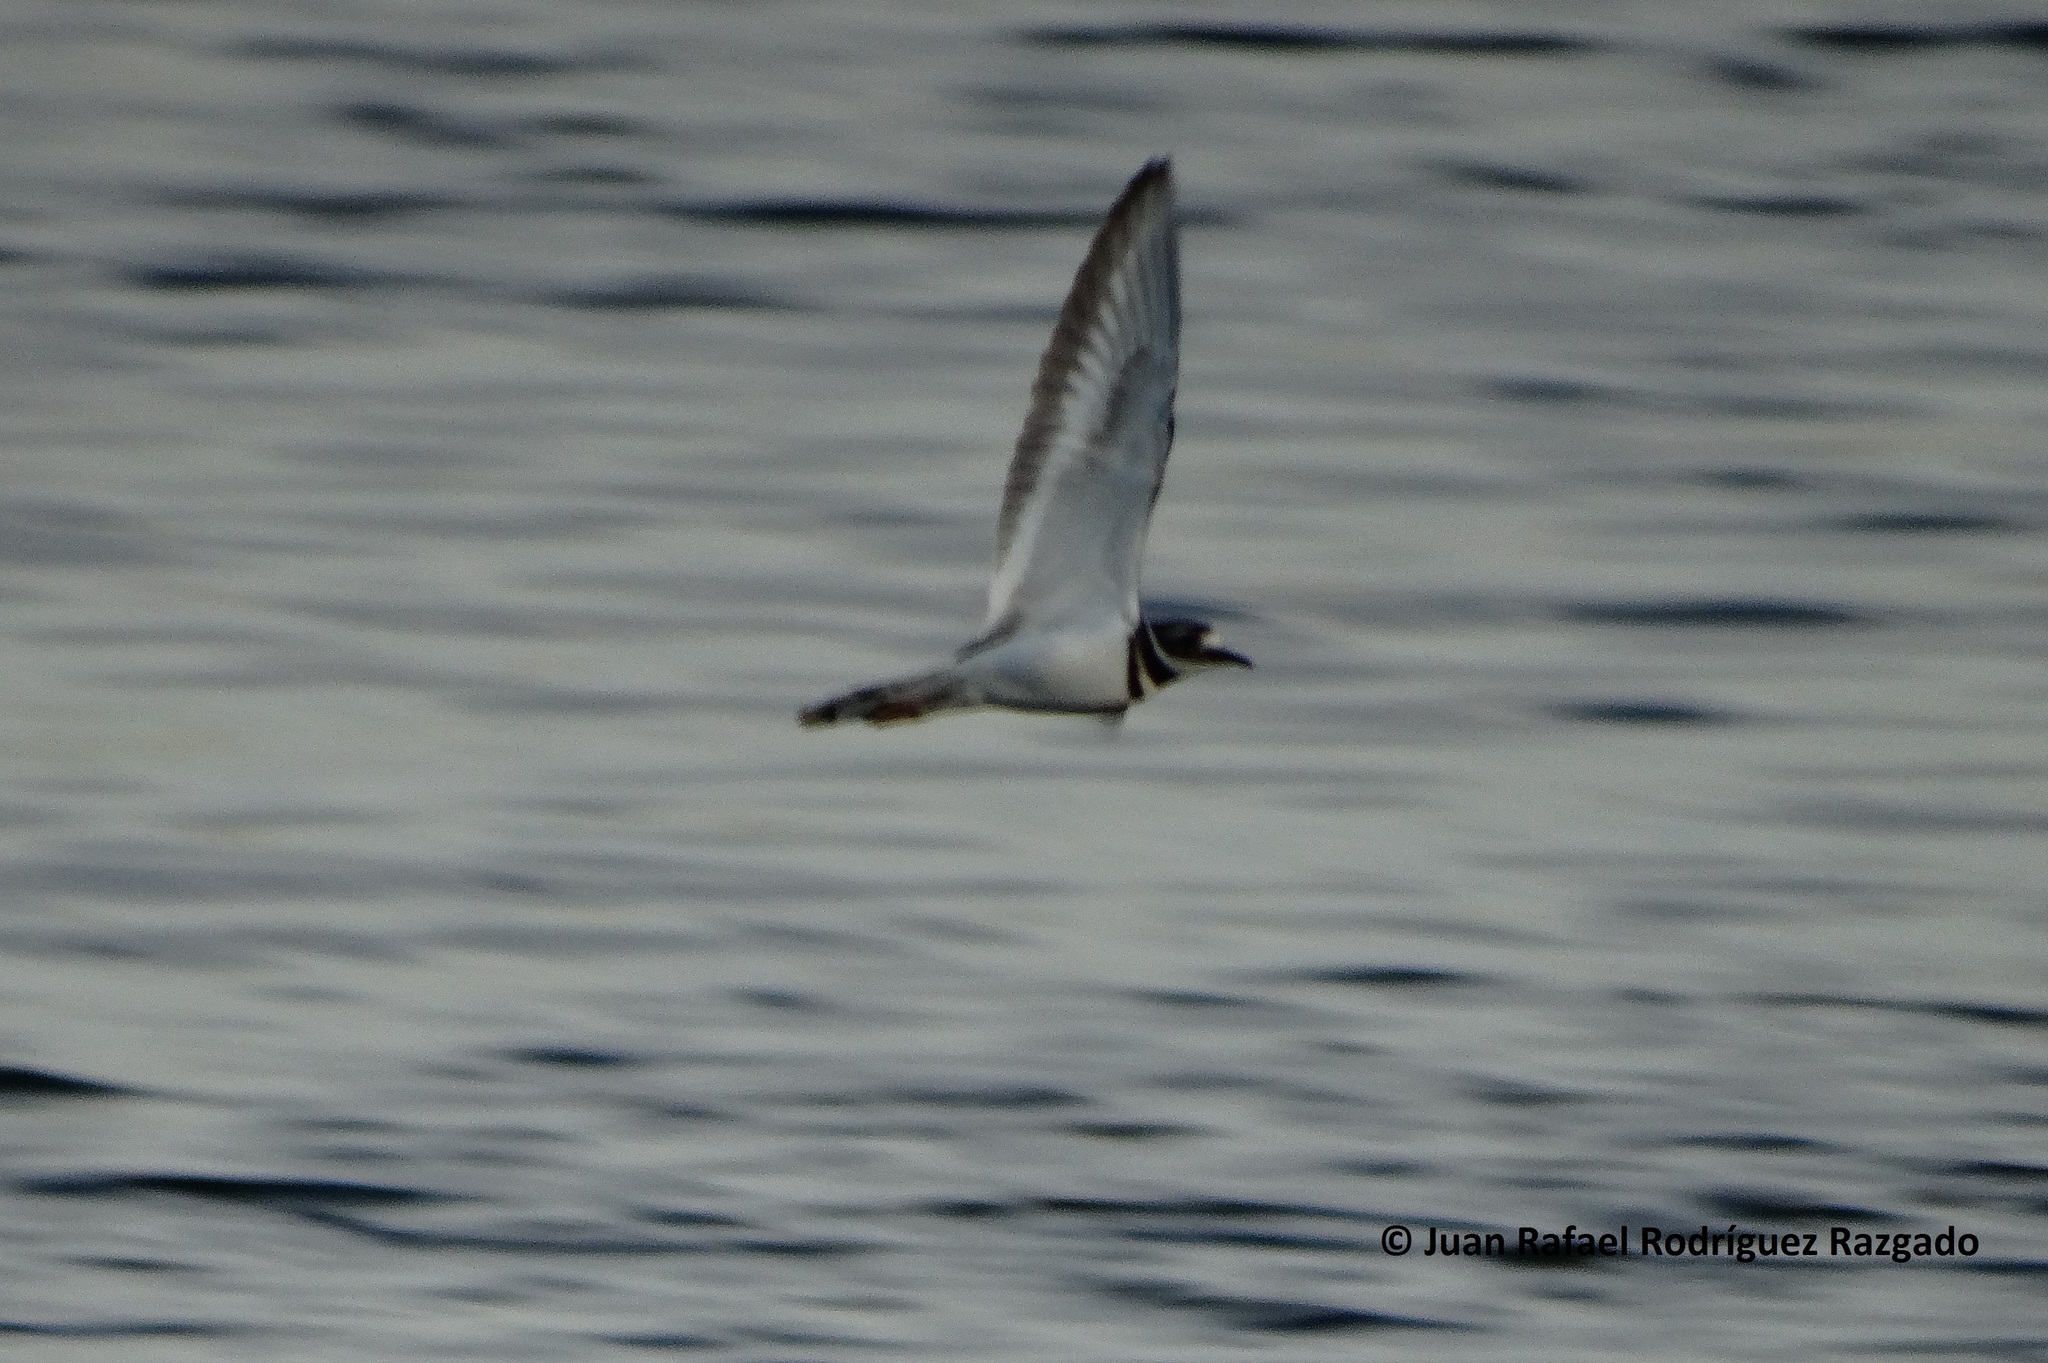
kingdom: Animalia
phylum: Chordata
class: Aves
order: Charadriiformes
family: Charadriidae
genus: Charadrius
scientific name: Charadrius vociferus
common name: Killdeer
